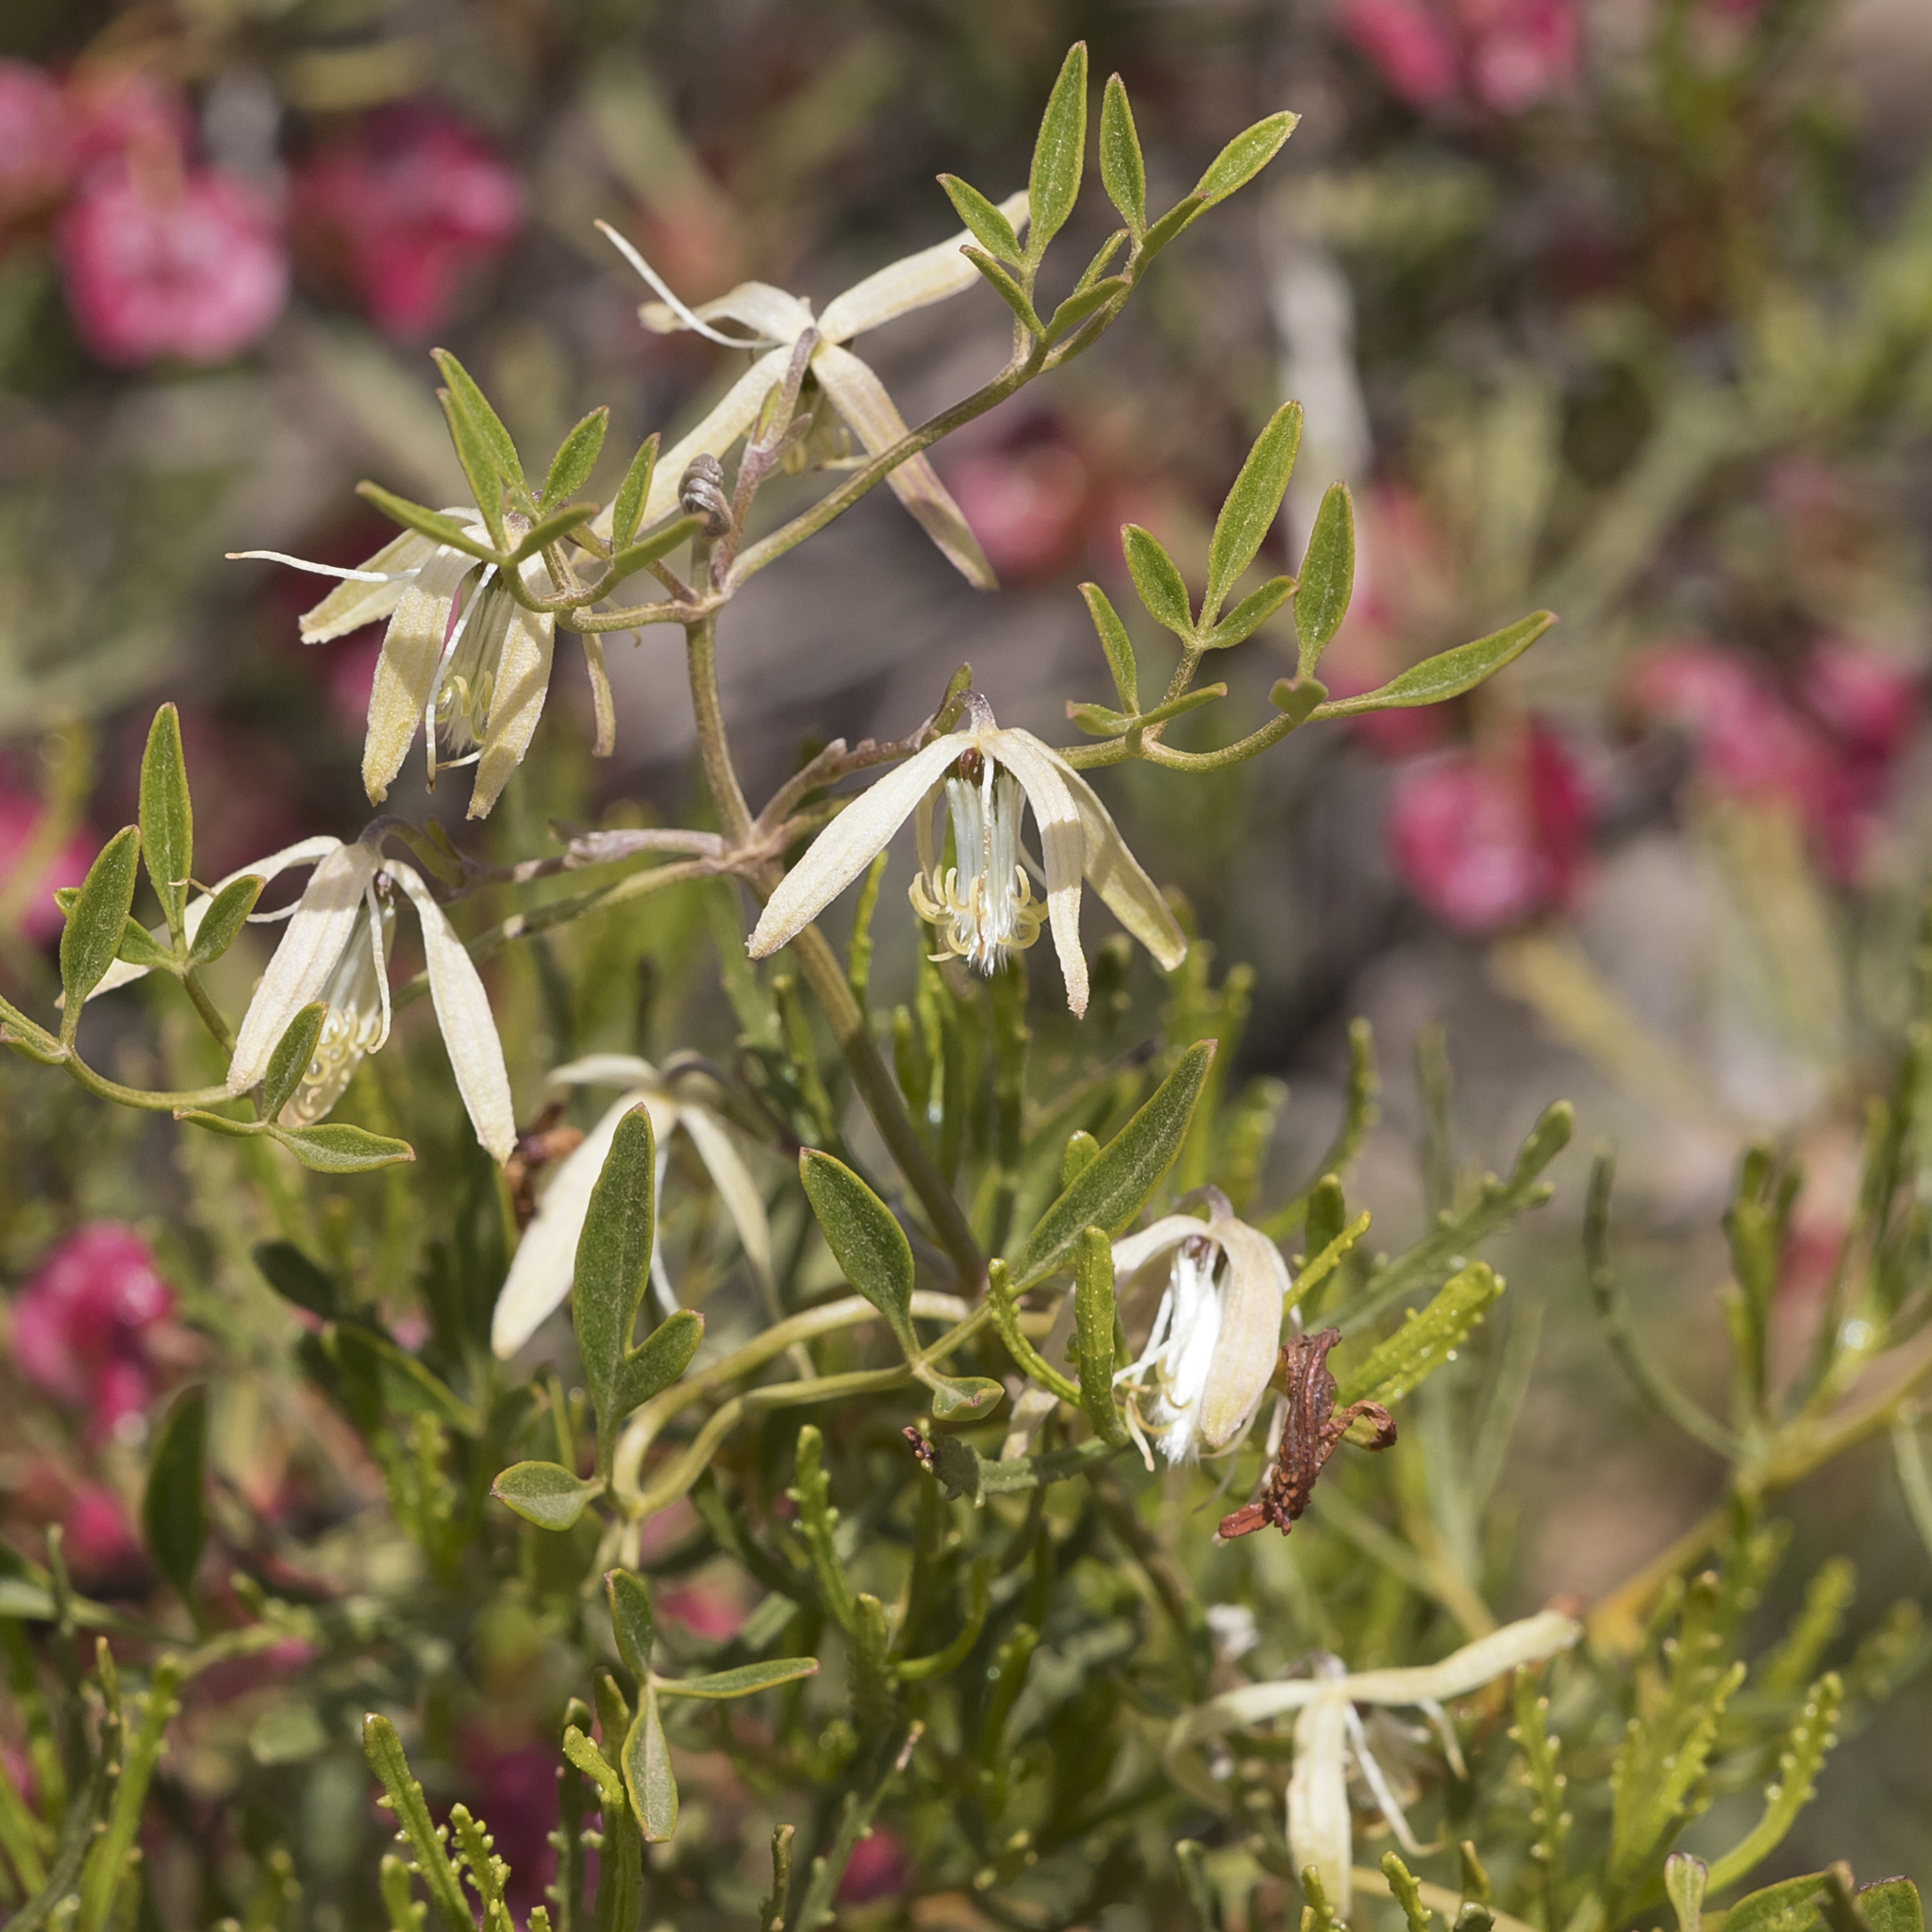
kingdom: Plantae
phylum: Tracheophyta
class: Magnoliopsida
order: Ranunculales
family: Ranunculaceae
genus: Clematis
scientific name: Clematis microphylla
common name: Headachevine
